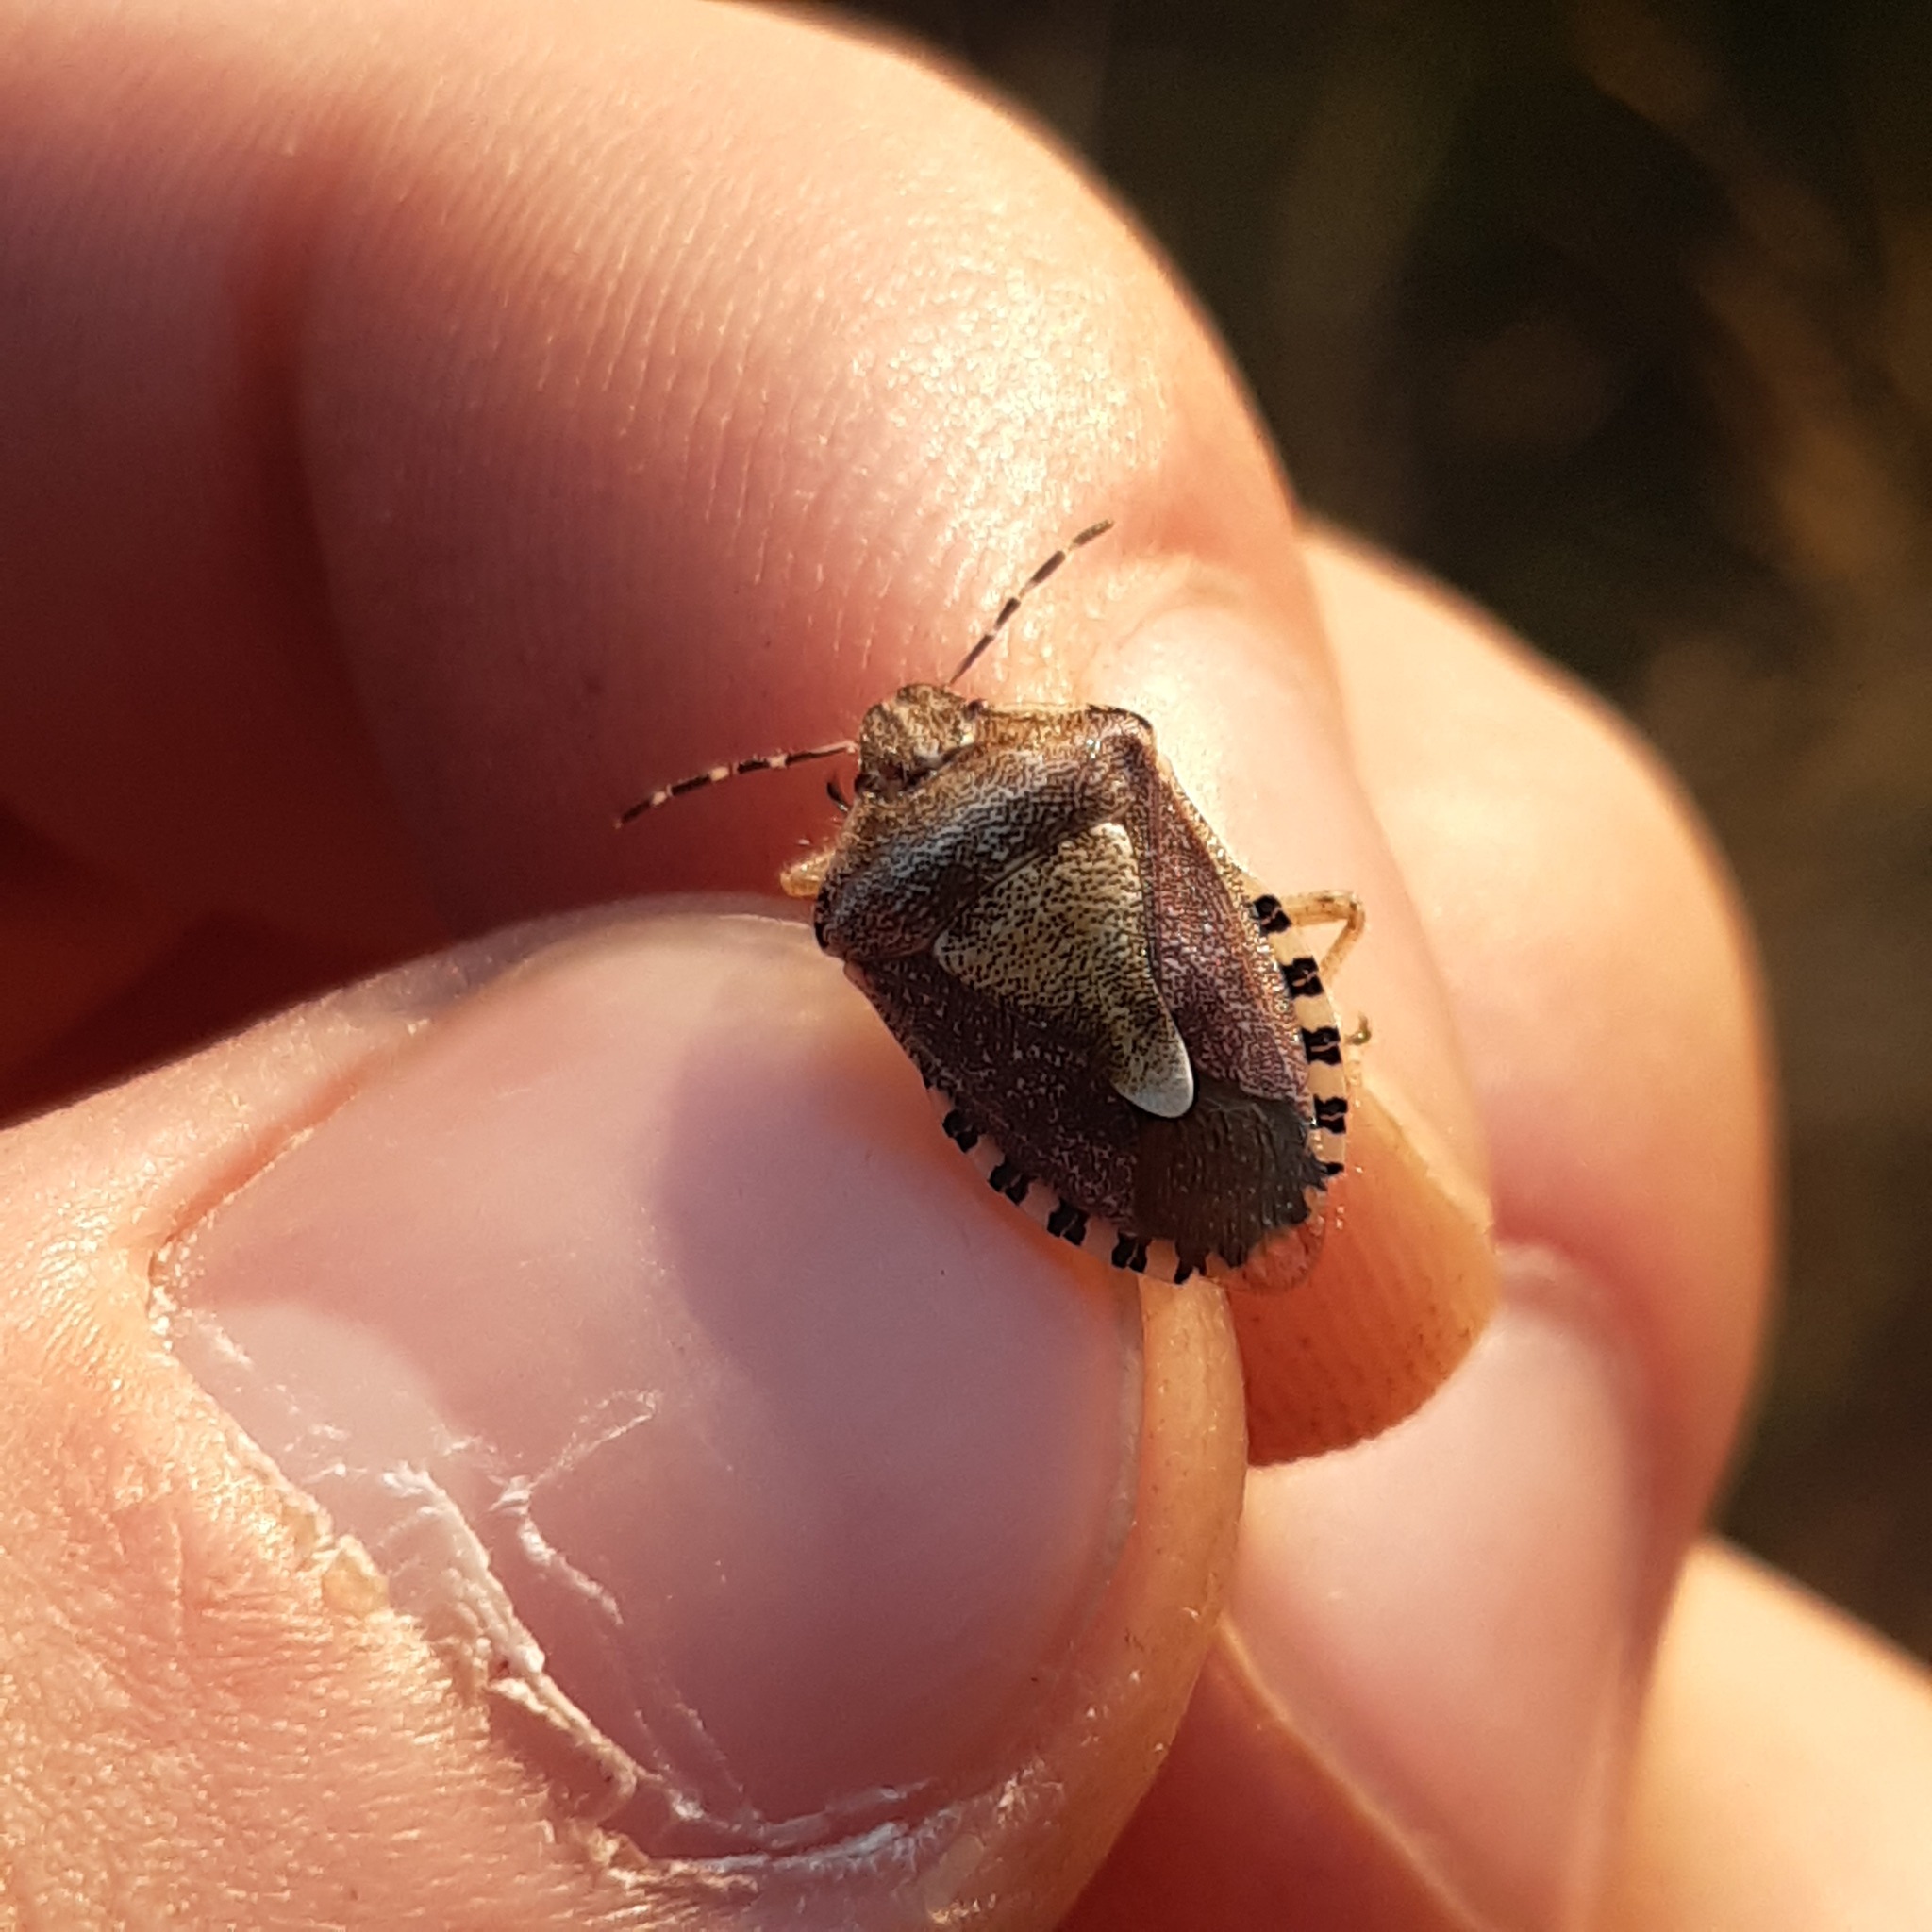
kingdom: Animalia
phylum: Arthropoda
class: Insecta
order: Hemiptera
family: Pentatomidae
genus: Dolycoris
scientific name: Dolycoris baccarum
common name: Sloe bug
